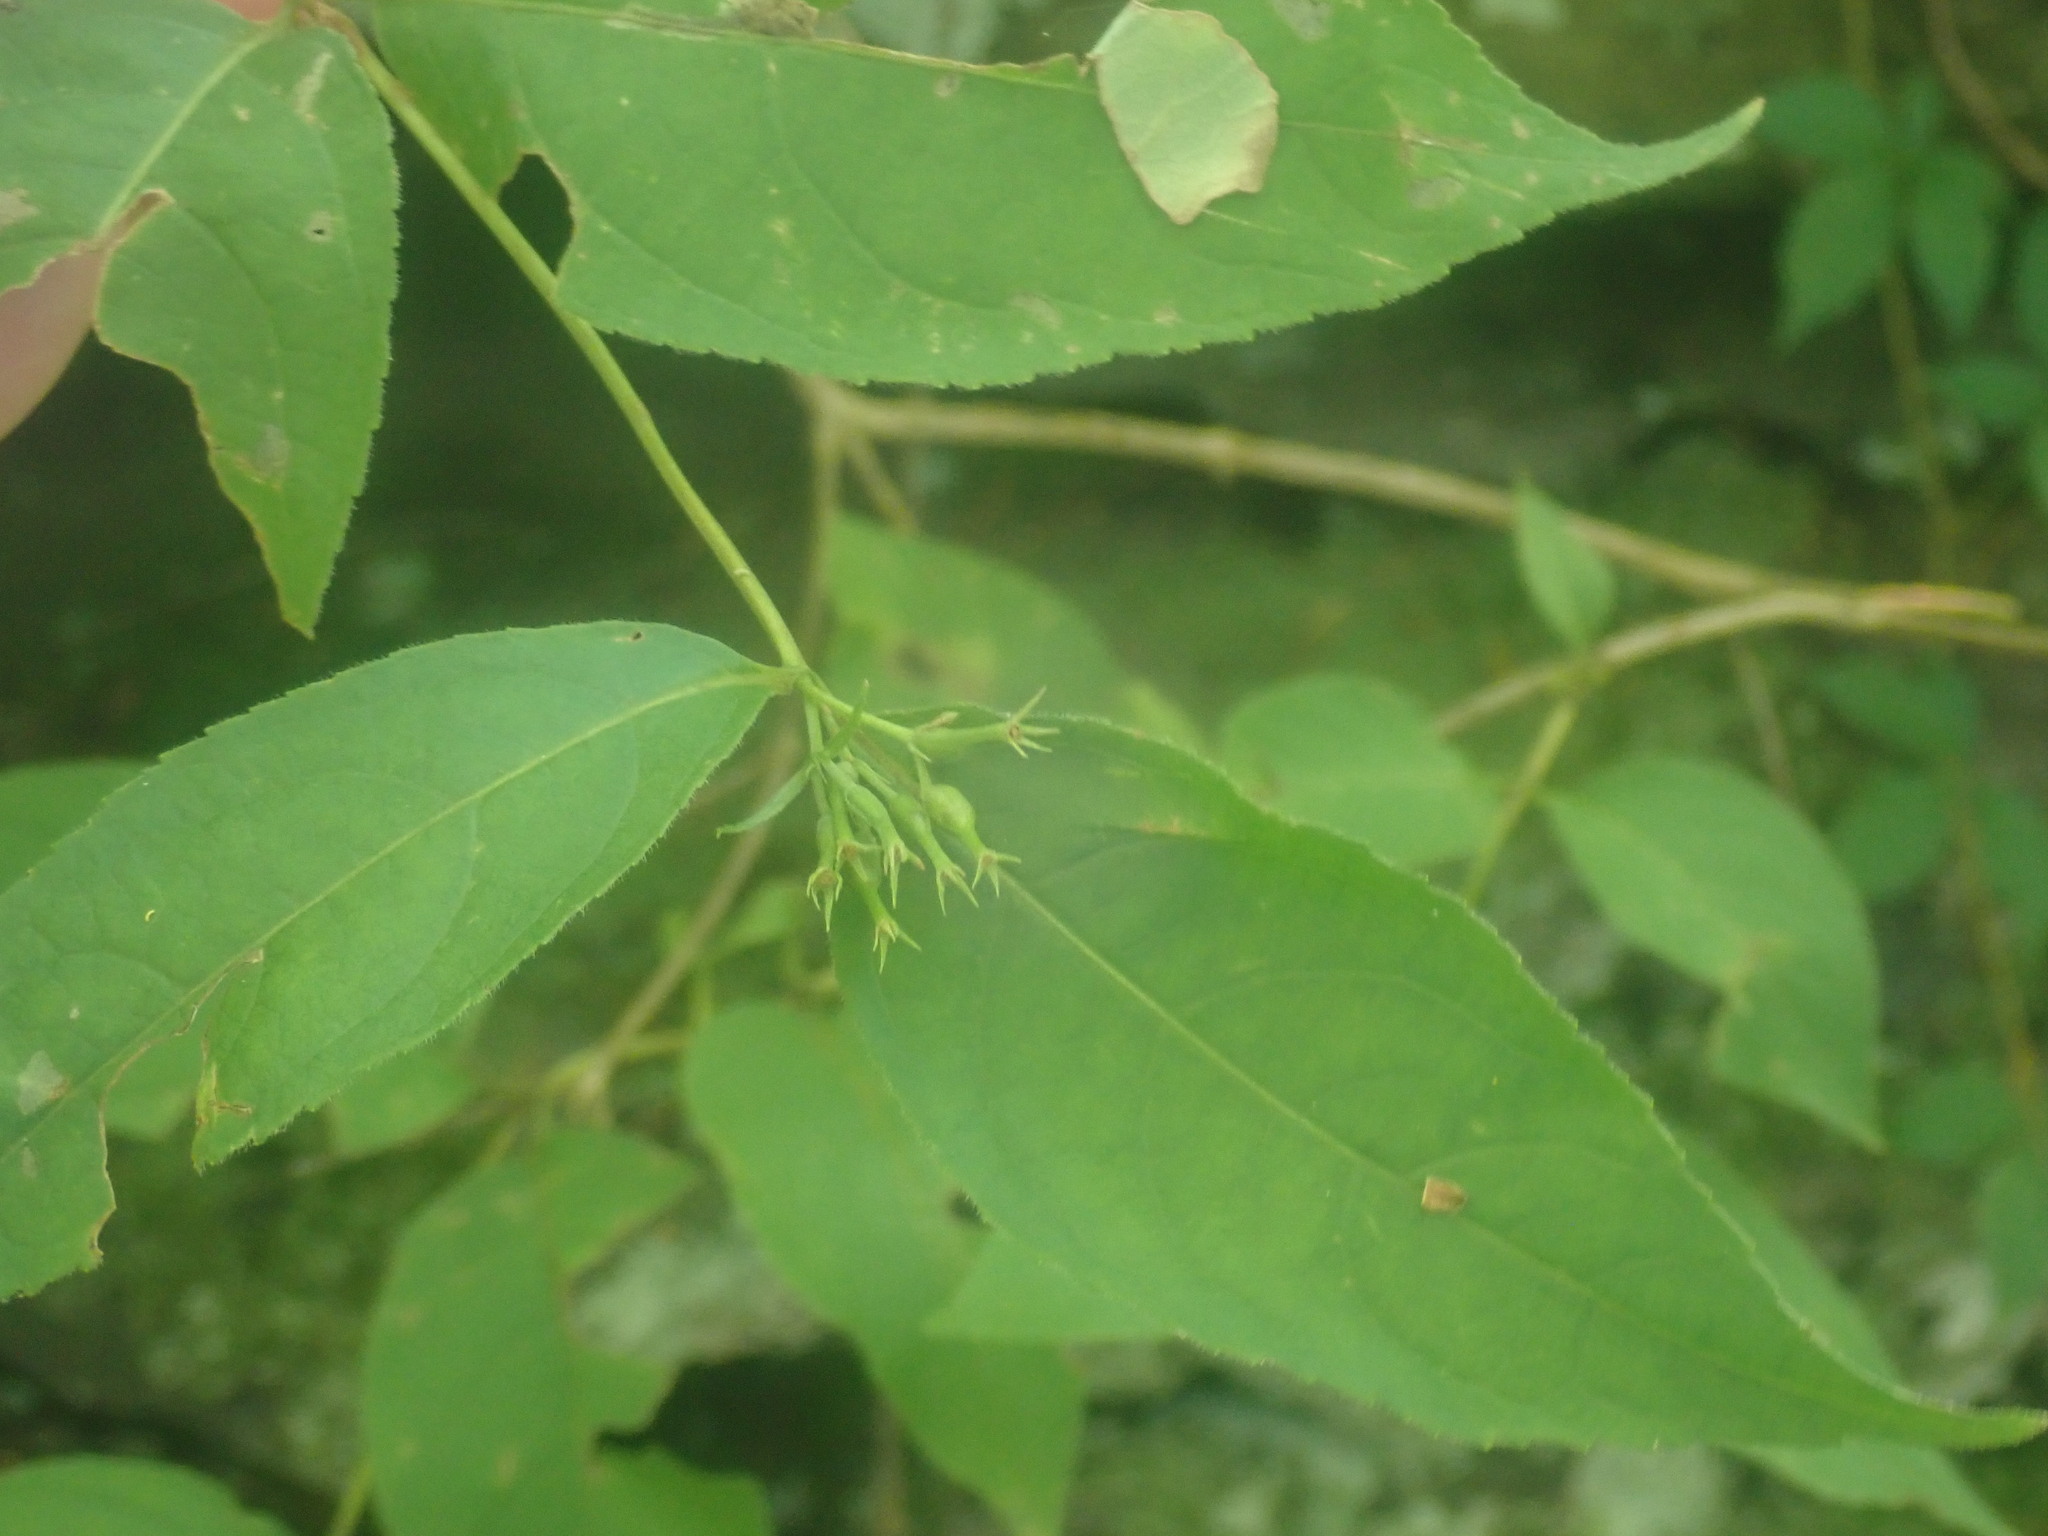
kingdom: Plantae
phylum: Tracheophyta
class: Magnoliopsida
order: Dipsacales
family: Caprifoliaceae
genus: Diervilla
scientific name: Diervilla lonicera
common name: Bush-honeysuckle
